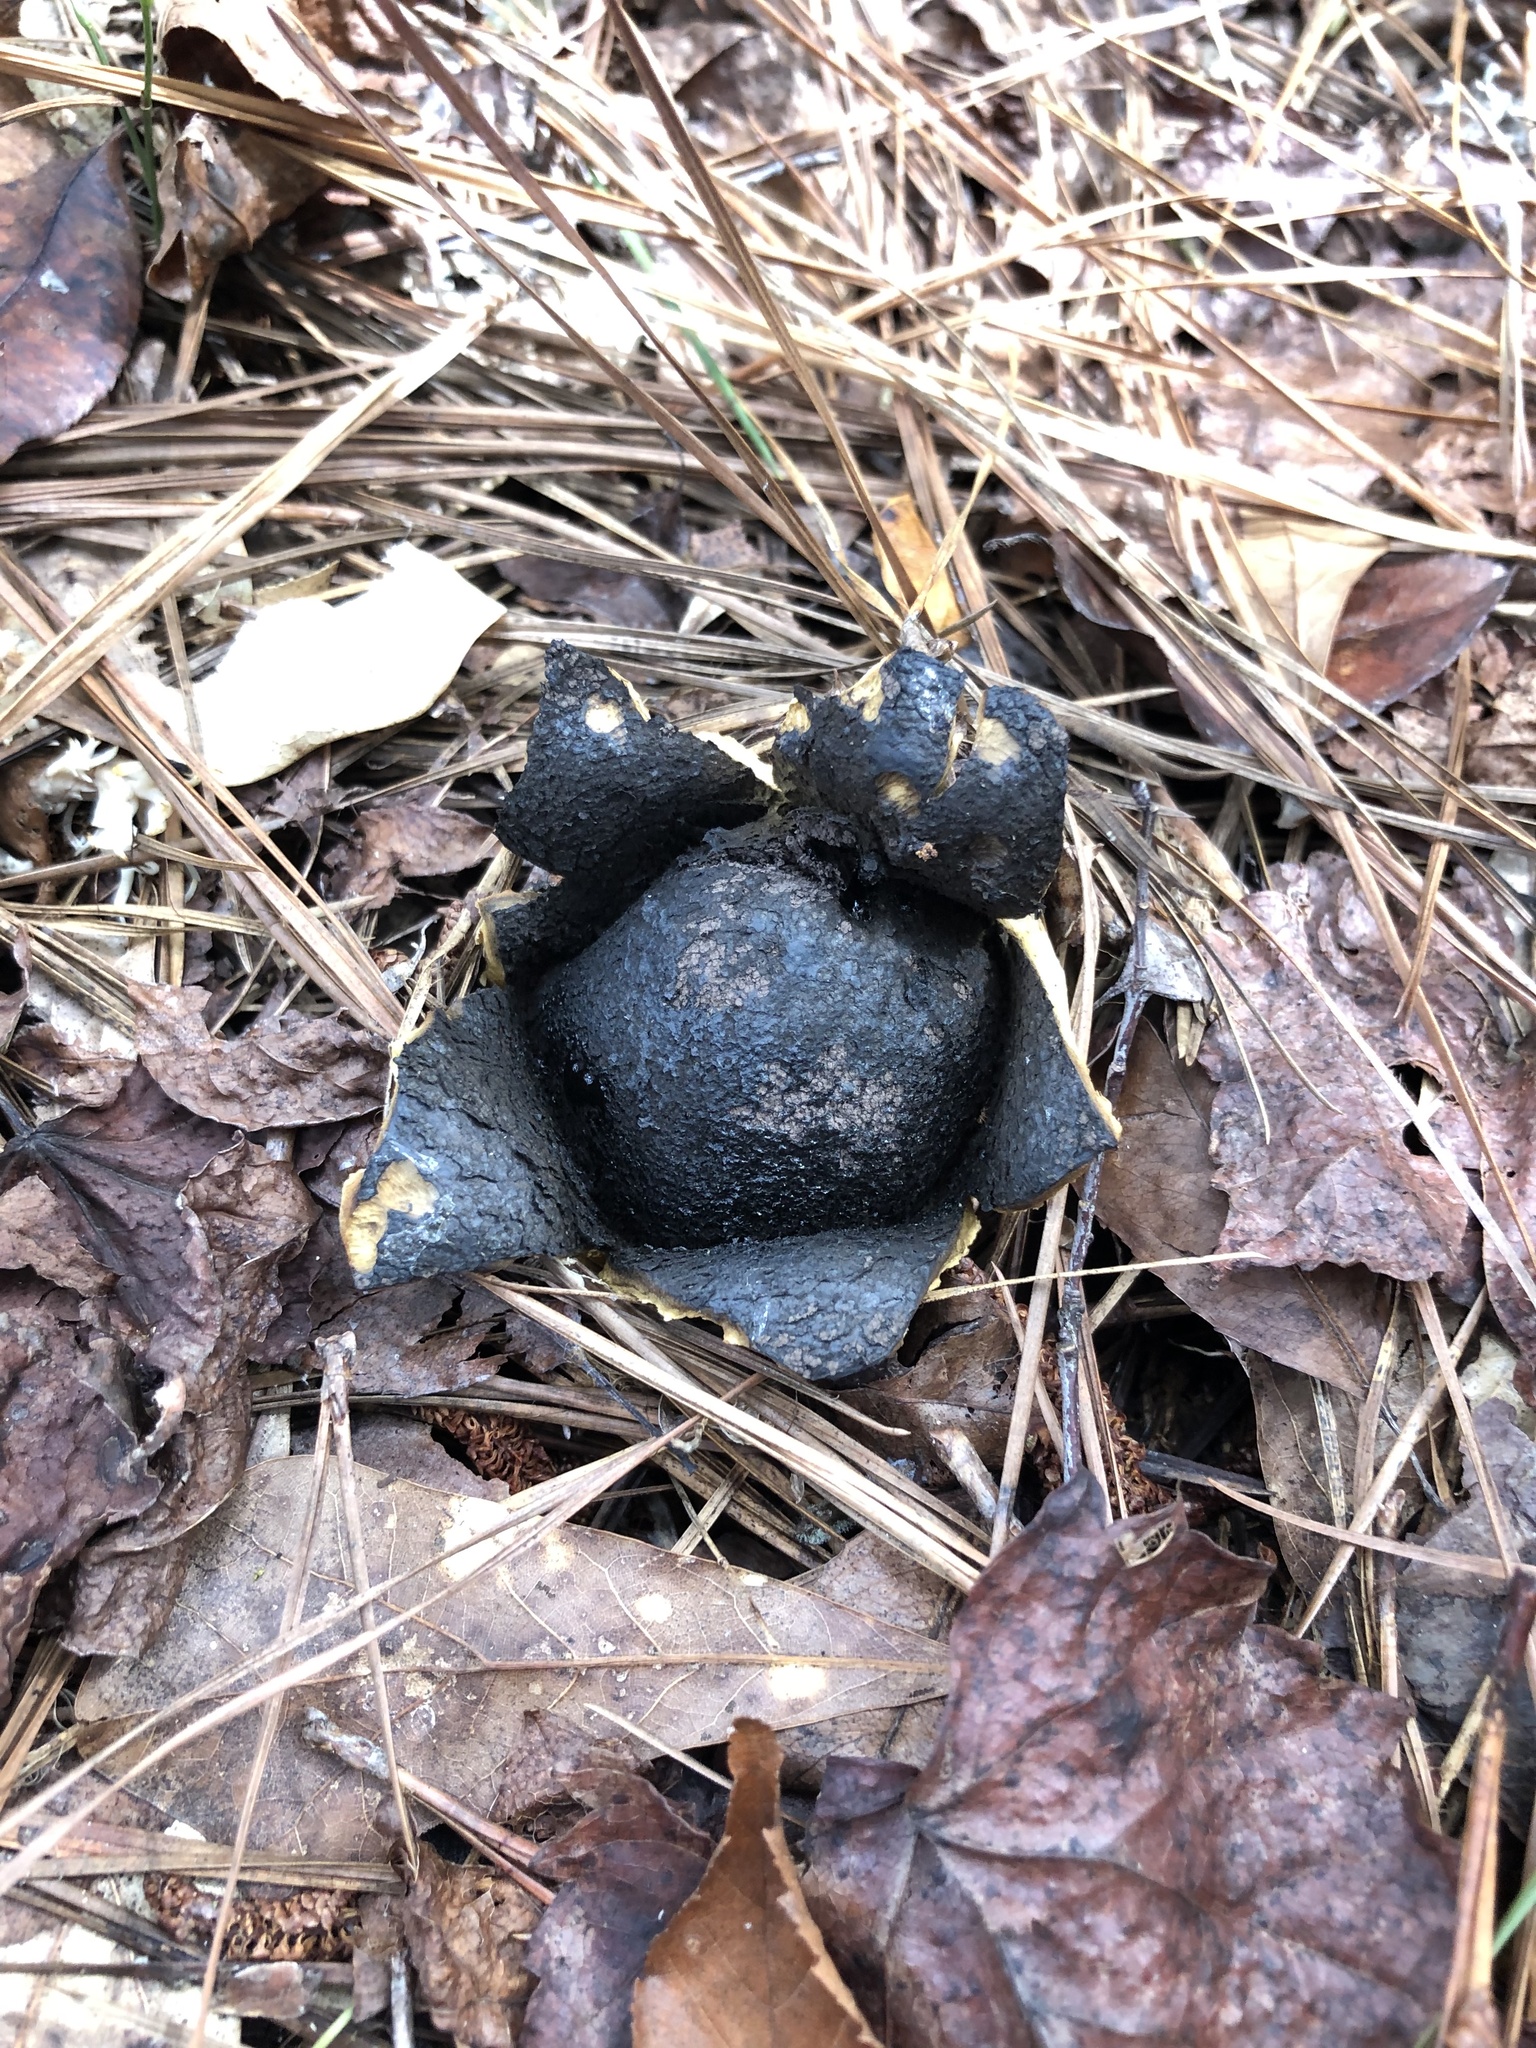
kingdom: Fungi
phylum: Basidiomycota
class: Agaricomycetes
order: Boletales
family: Sclerodermataceae
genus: Scleroderma
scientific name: Scleroderma polyrhizum
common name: Many-rooted earthball
